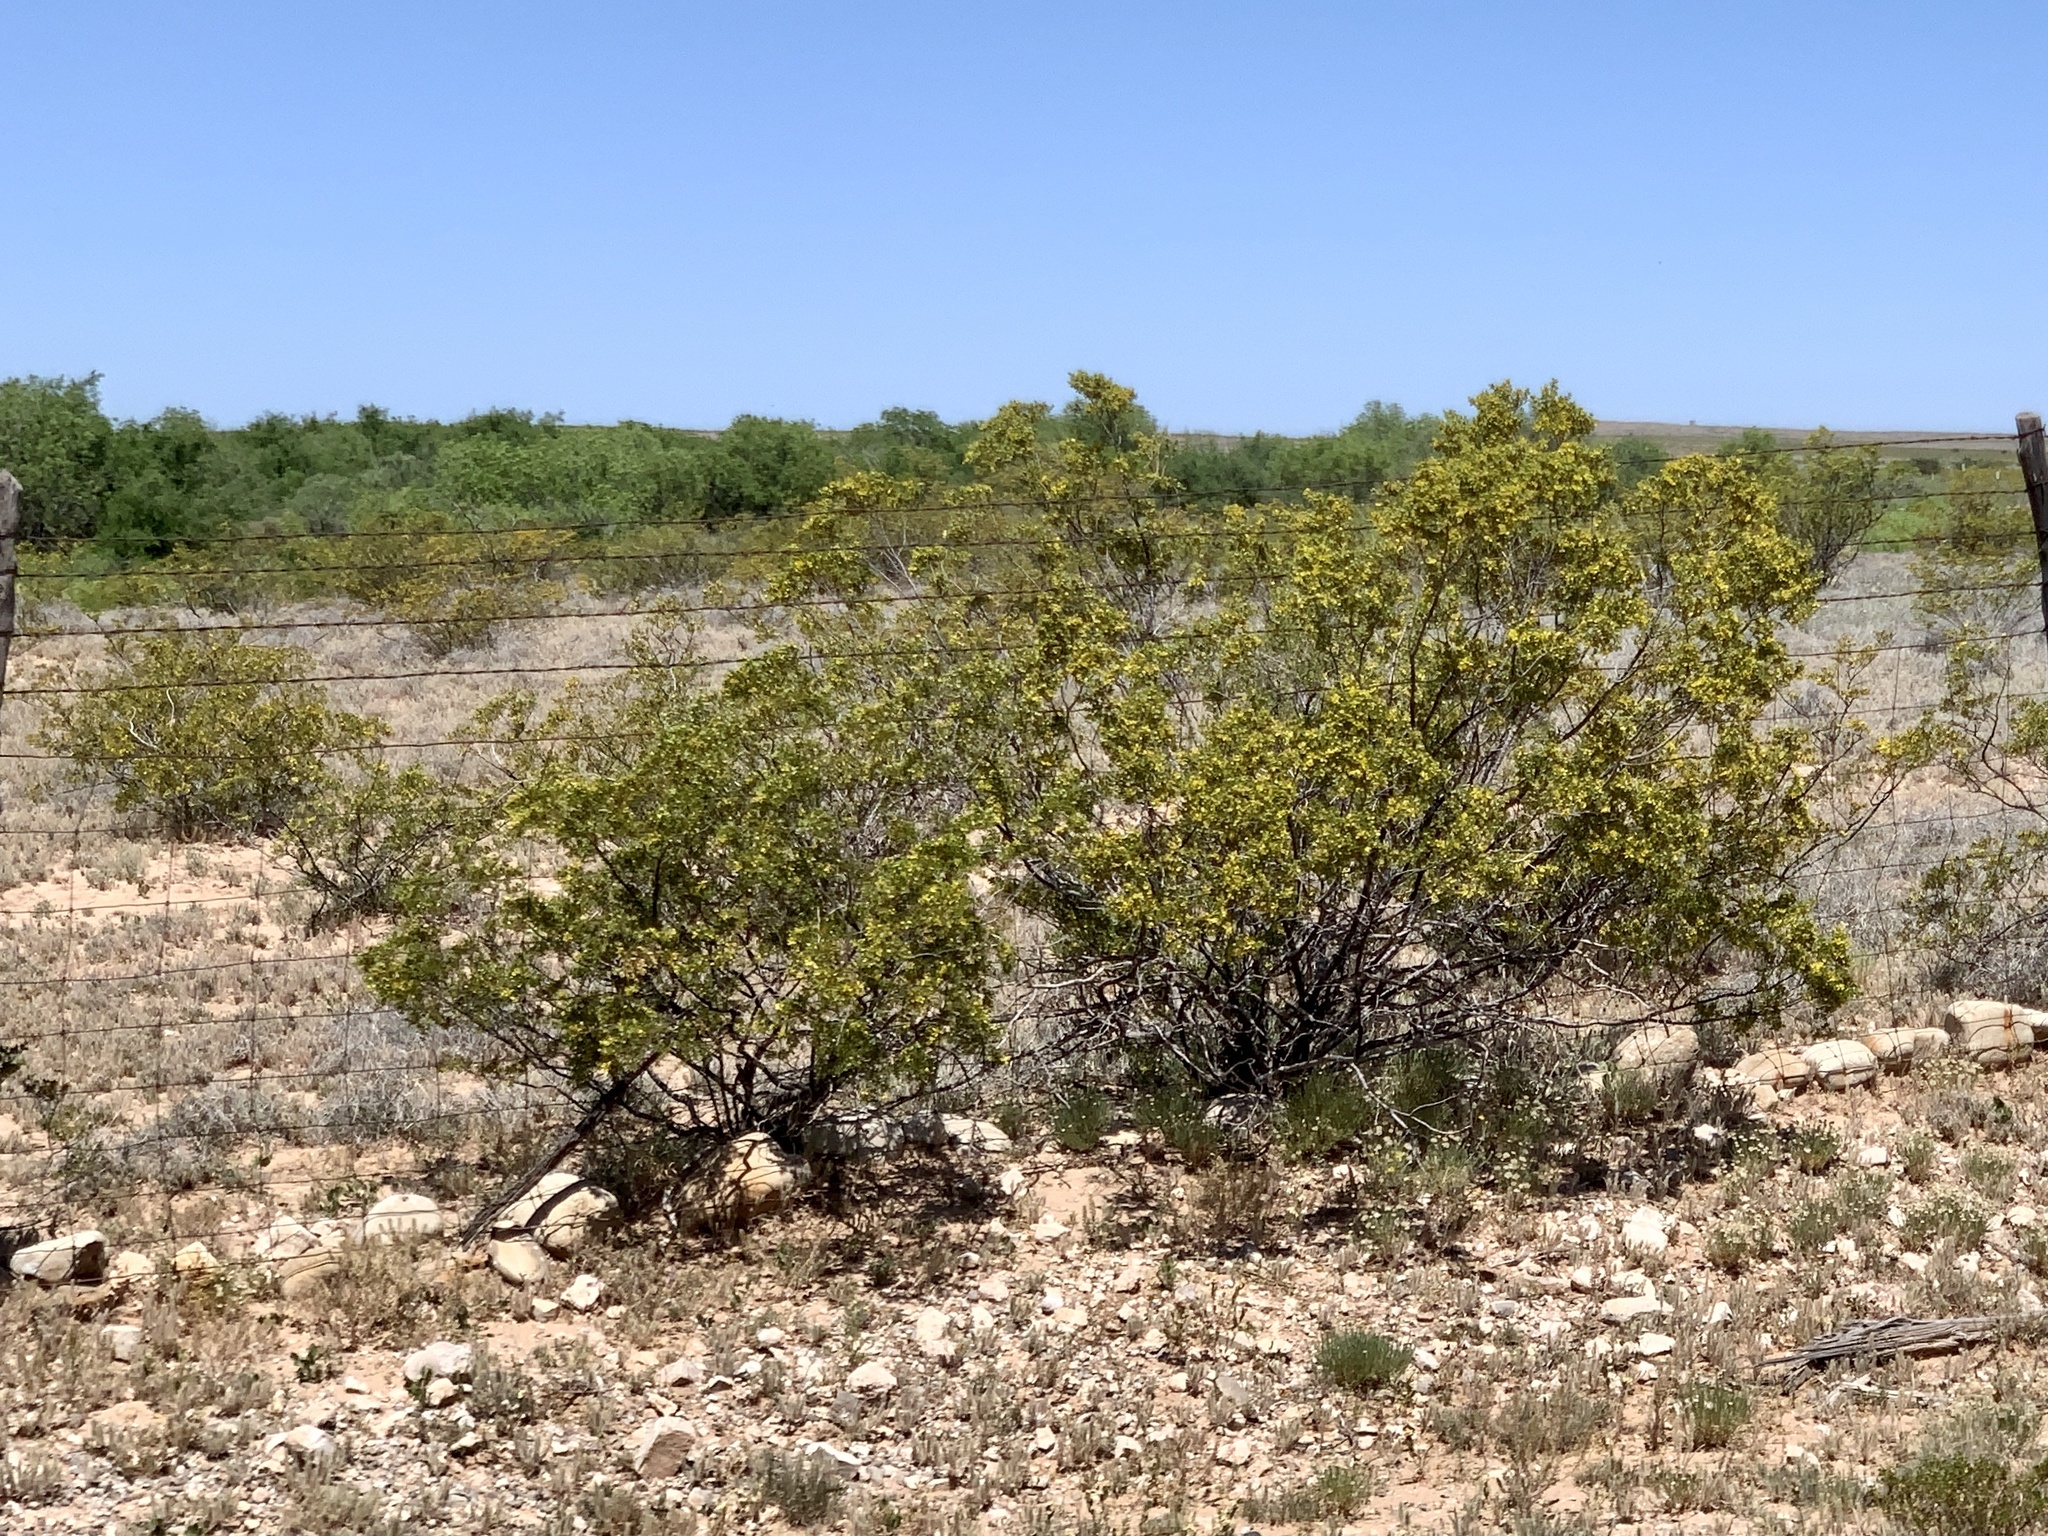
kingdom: Plantae
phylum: Tracheophyta
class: Magnoliopsida
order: Zygophyllales
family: Zygophyllaceae
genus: Larrea
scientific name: Larrea tridentata
